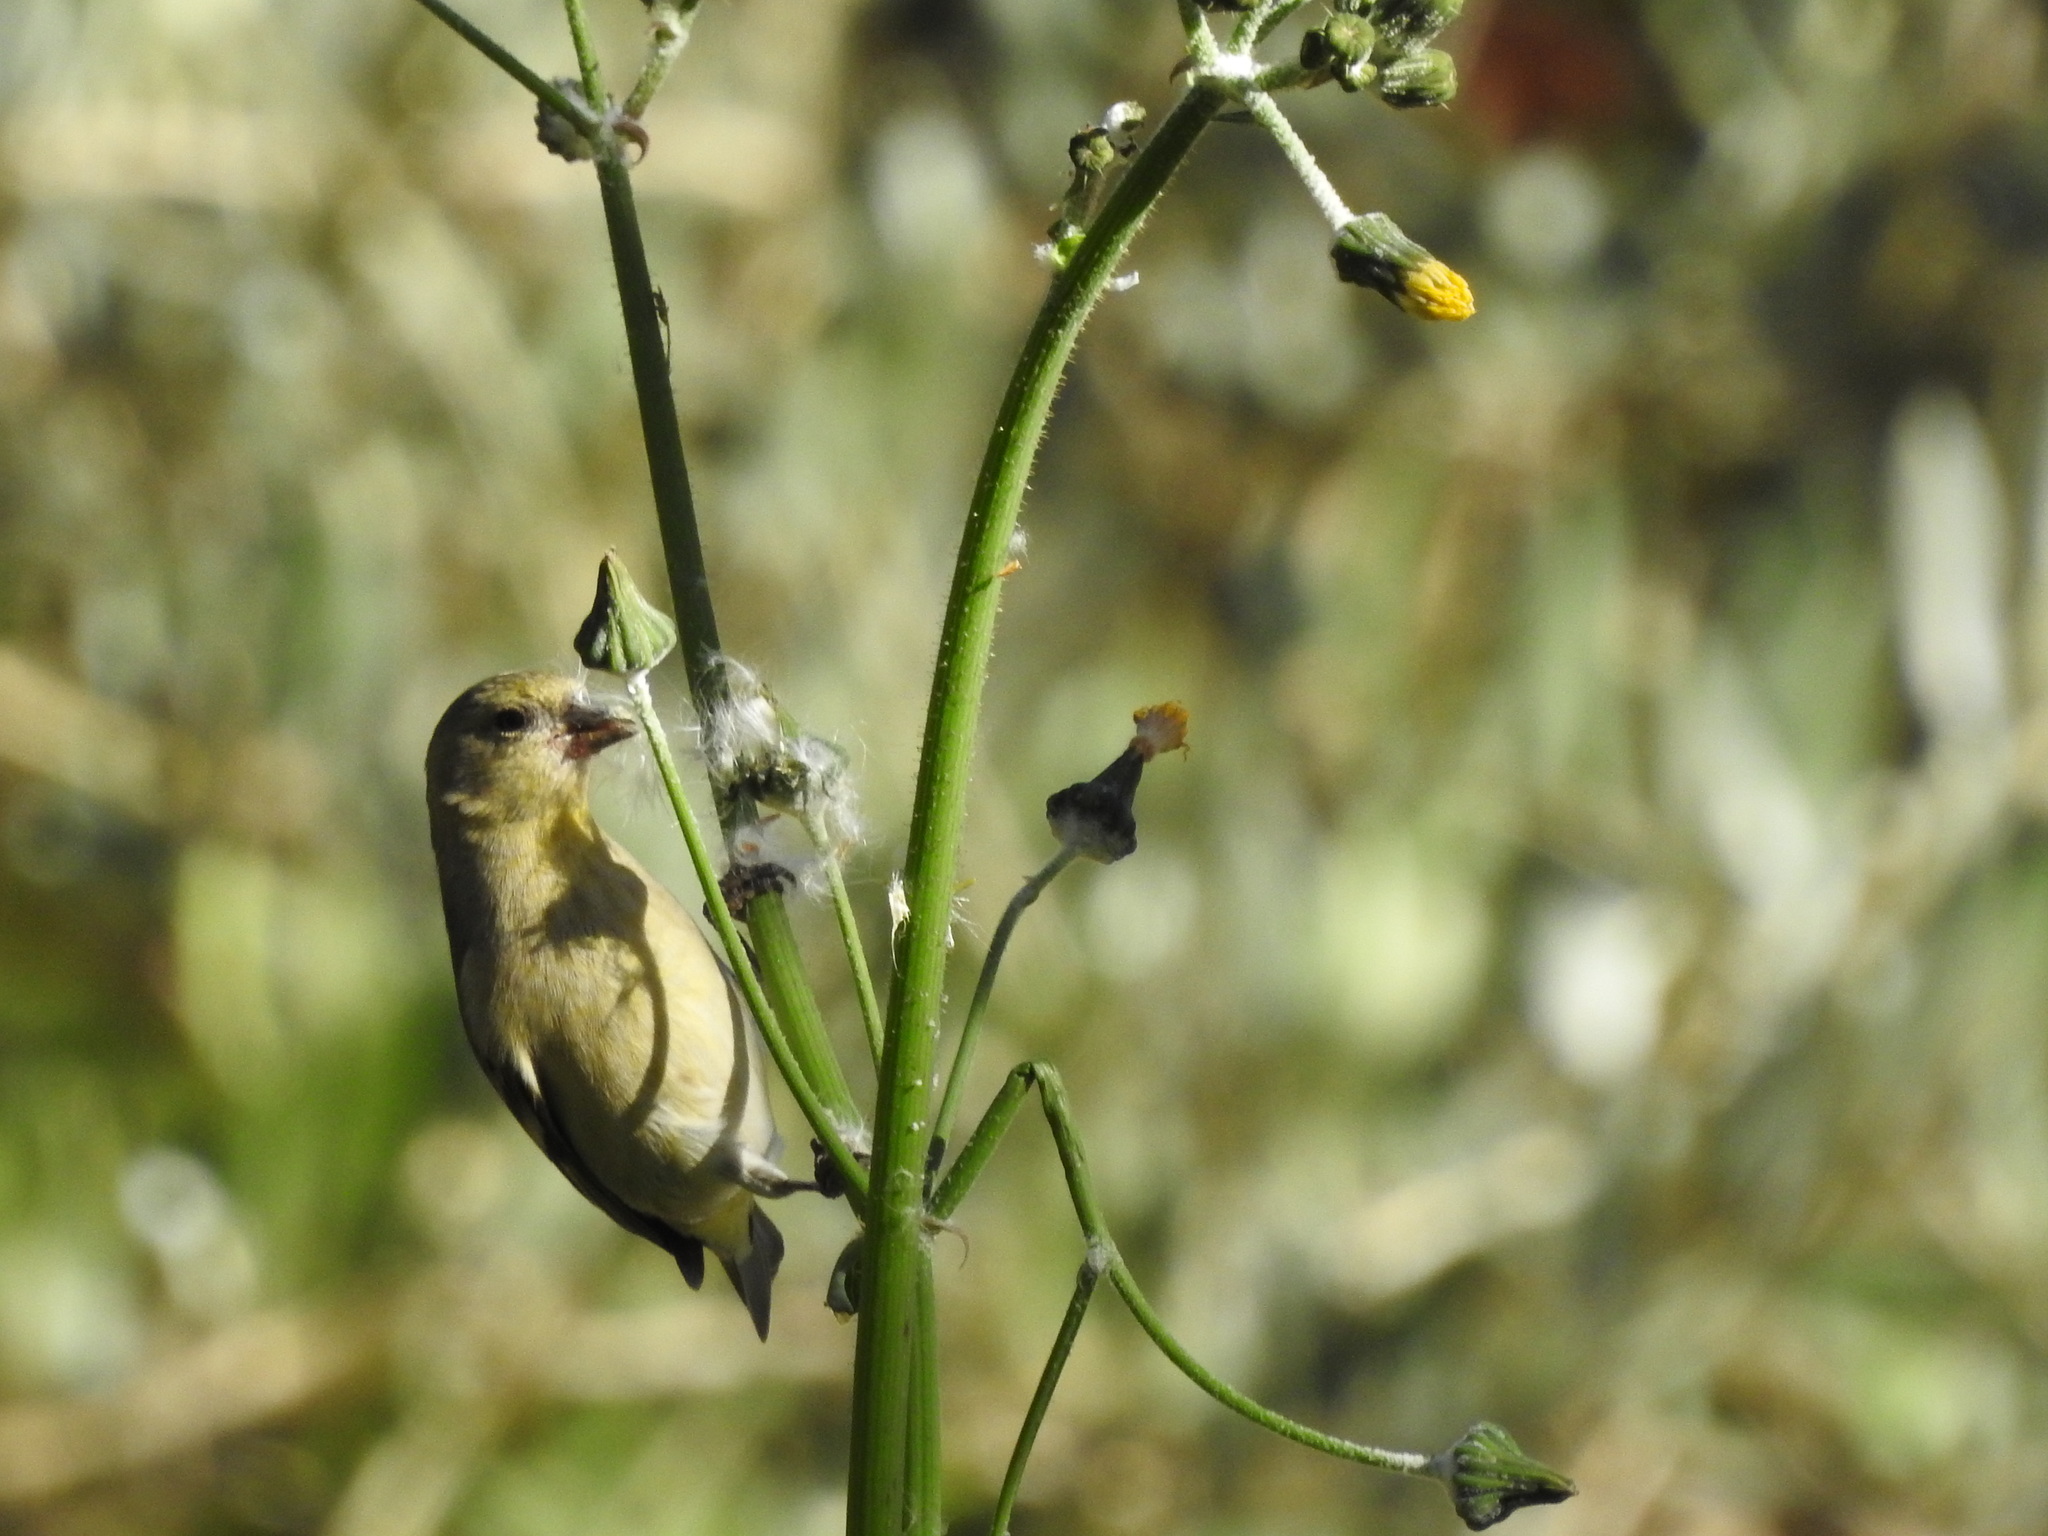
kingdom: Animalia
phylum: Chordata
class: Aves
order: Passeriformes
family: Fringillidae
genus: Spinus
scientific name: Spinus magellanicus
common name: Hooded siskin
